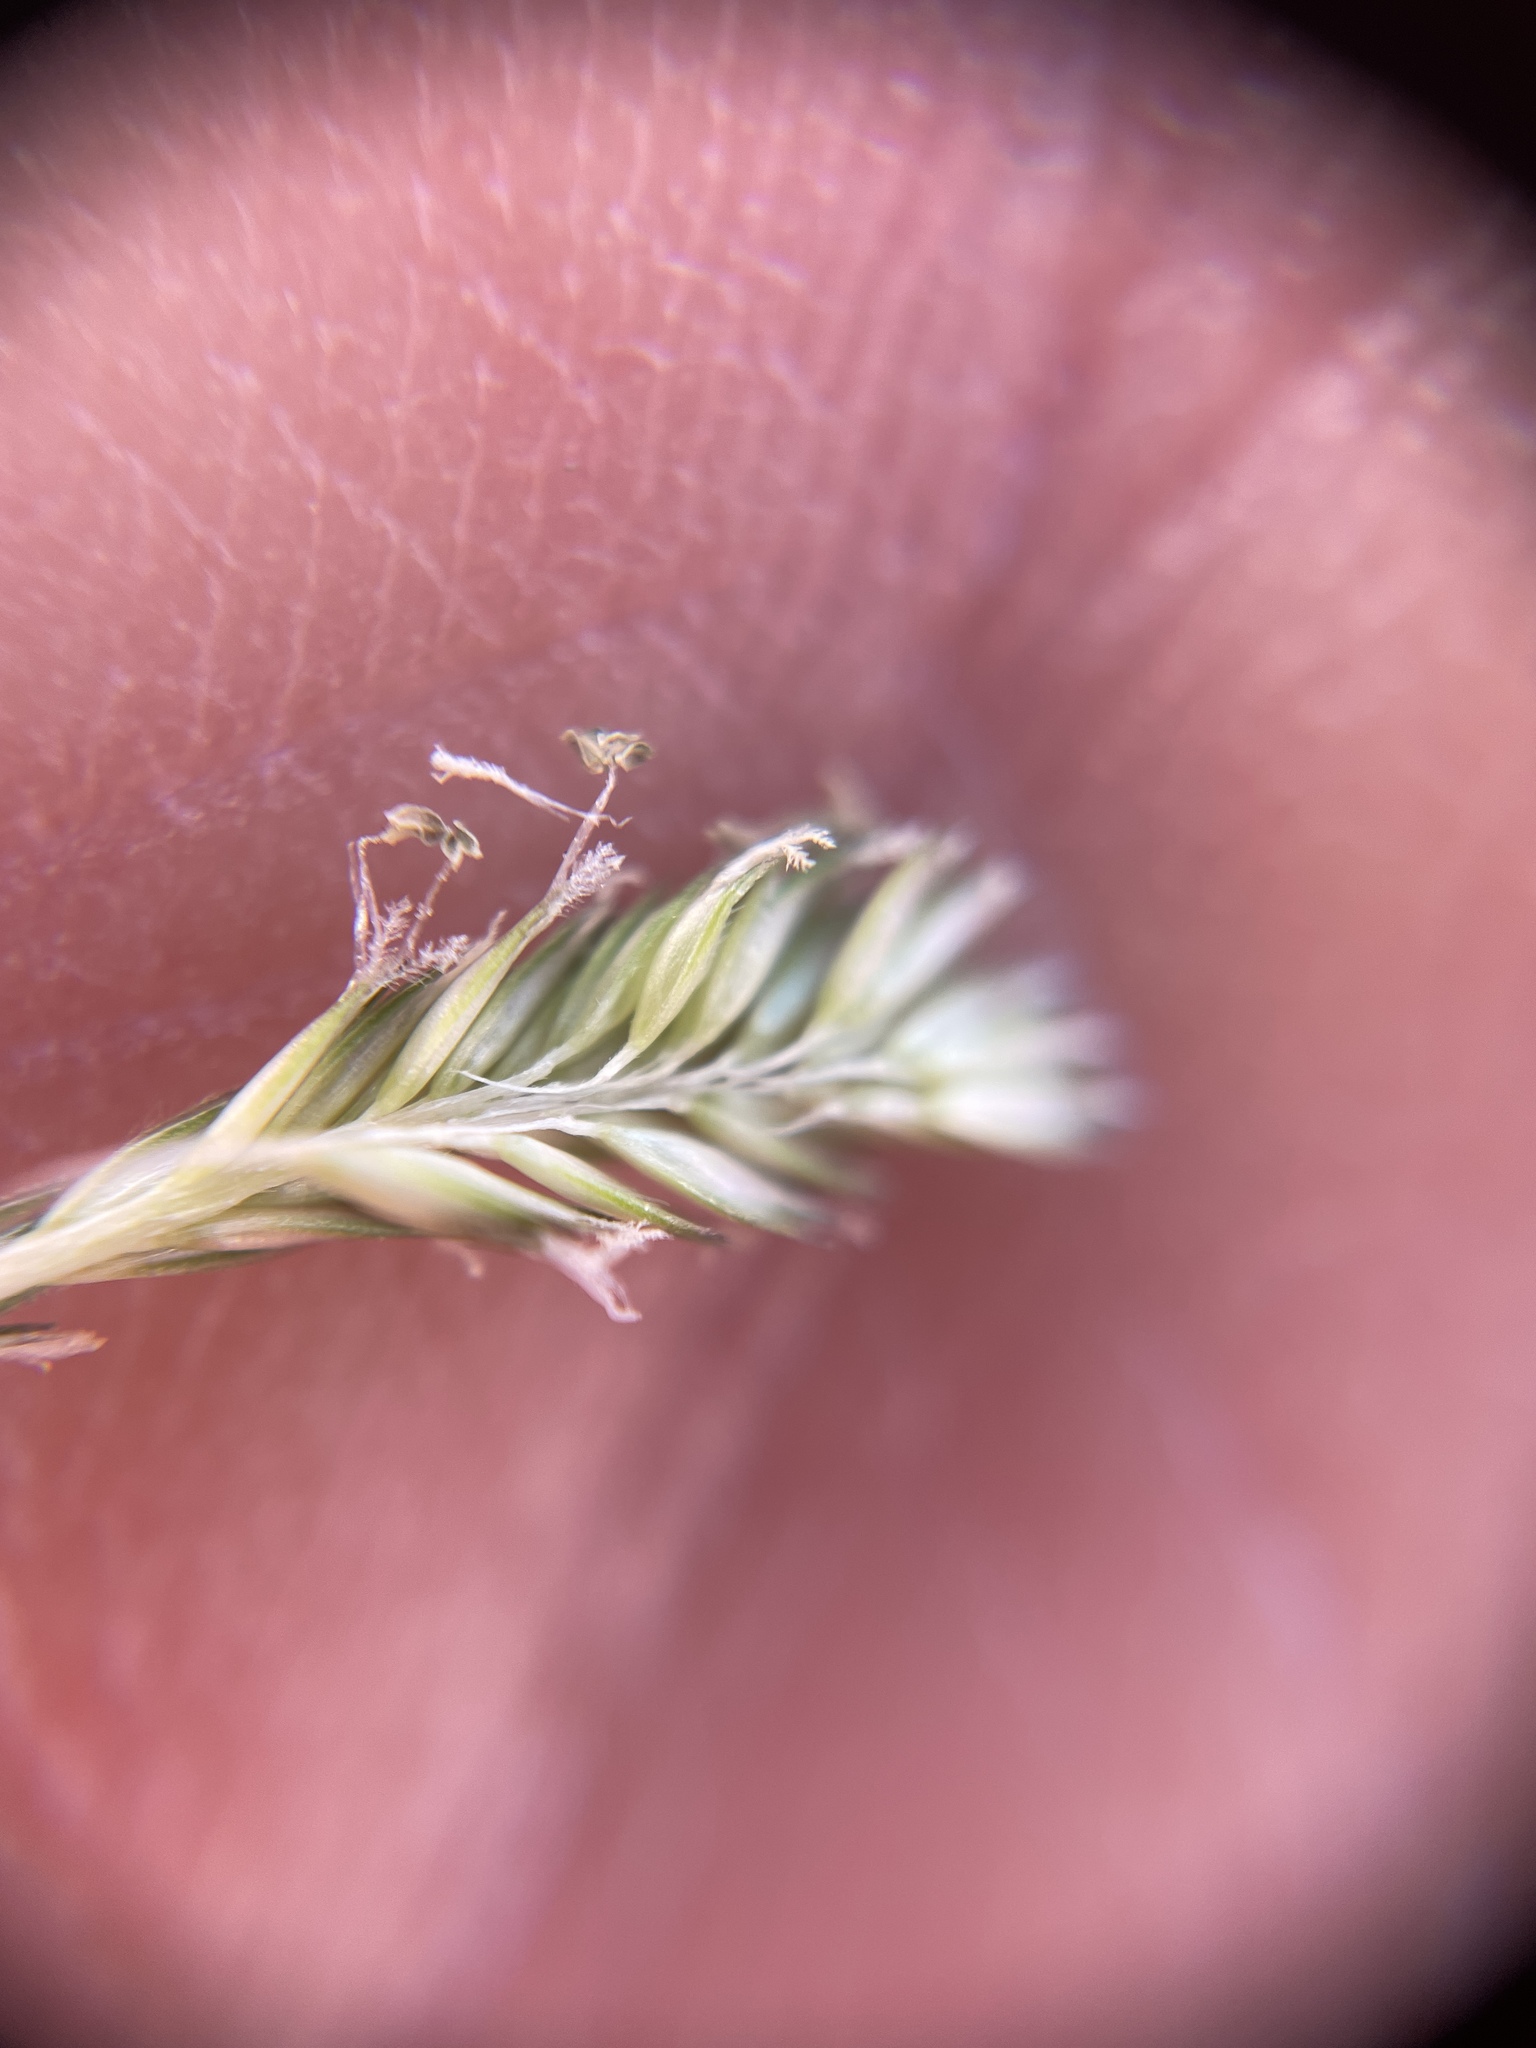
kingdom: Plantae
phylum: Tracheophyta
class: Liliopsida
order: Poales
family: Poaceae
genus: Sporobolus
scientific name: Sporobolus schoenoides
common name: Rush-like timothy
